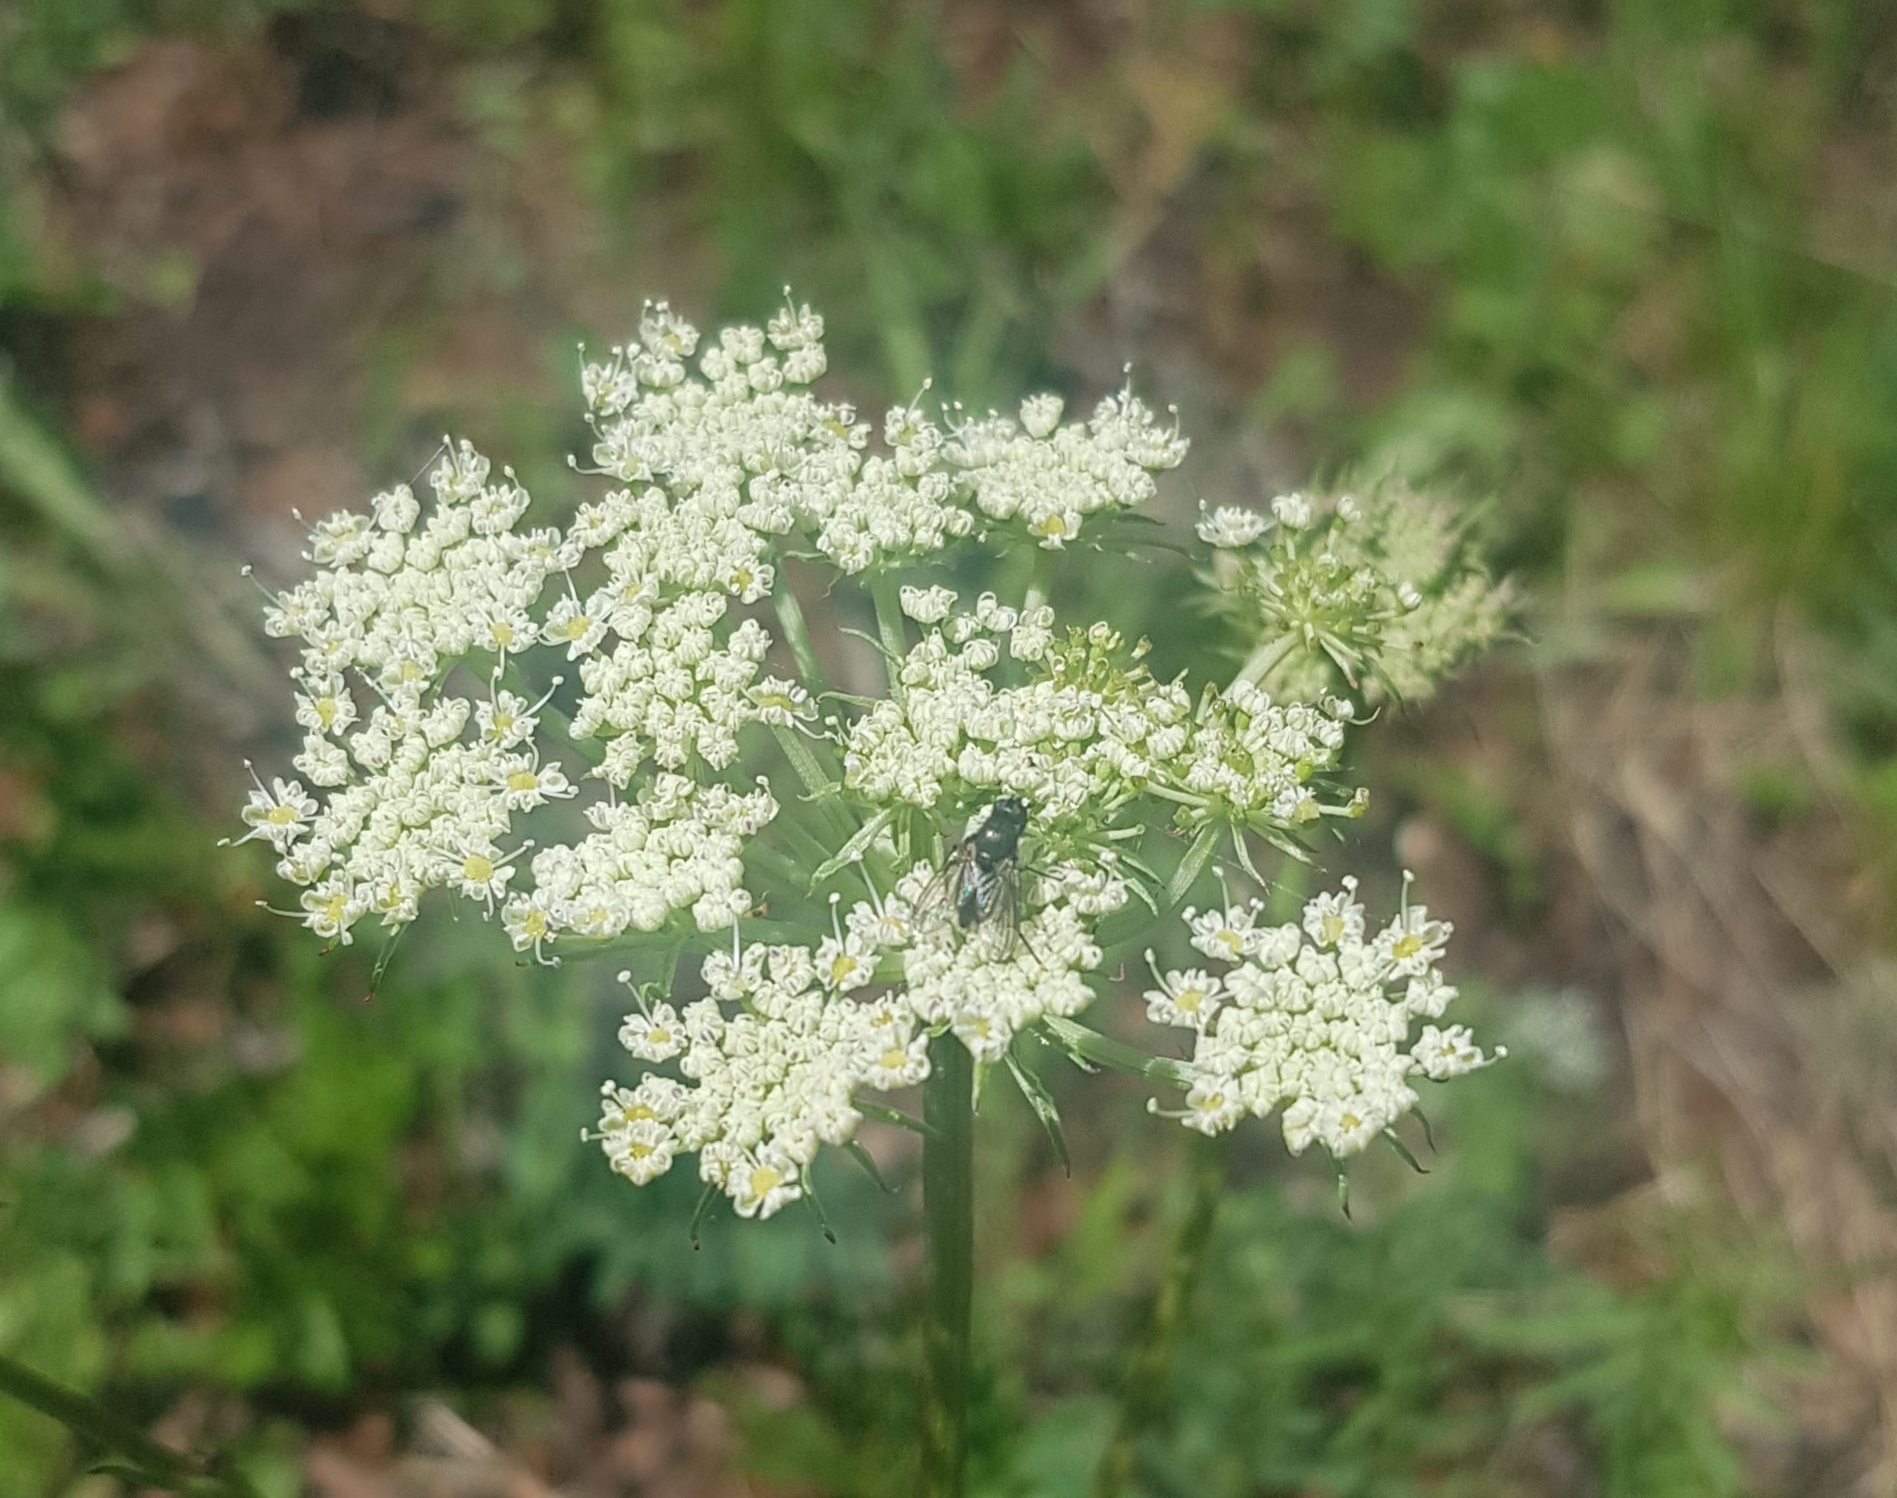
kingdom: Plantae
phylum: Tracheophyta
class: Magnoliopsida
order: Apiales
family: Apiaceae
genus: Pachypleurum
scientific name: Pachypleurum mutellinoides
